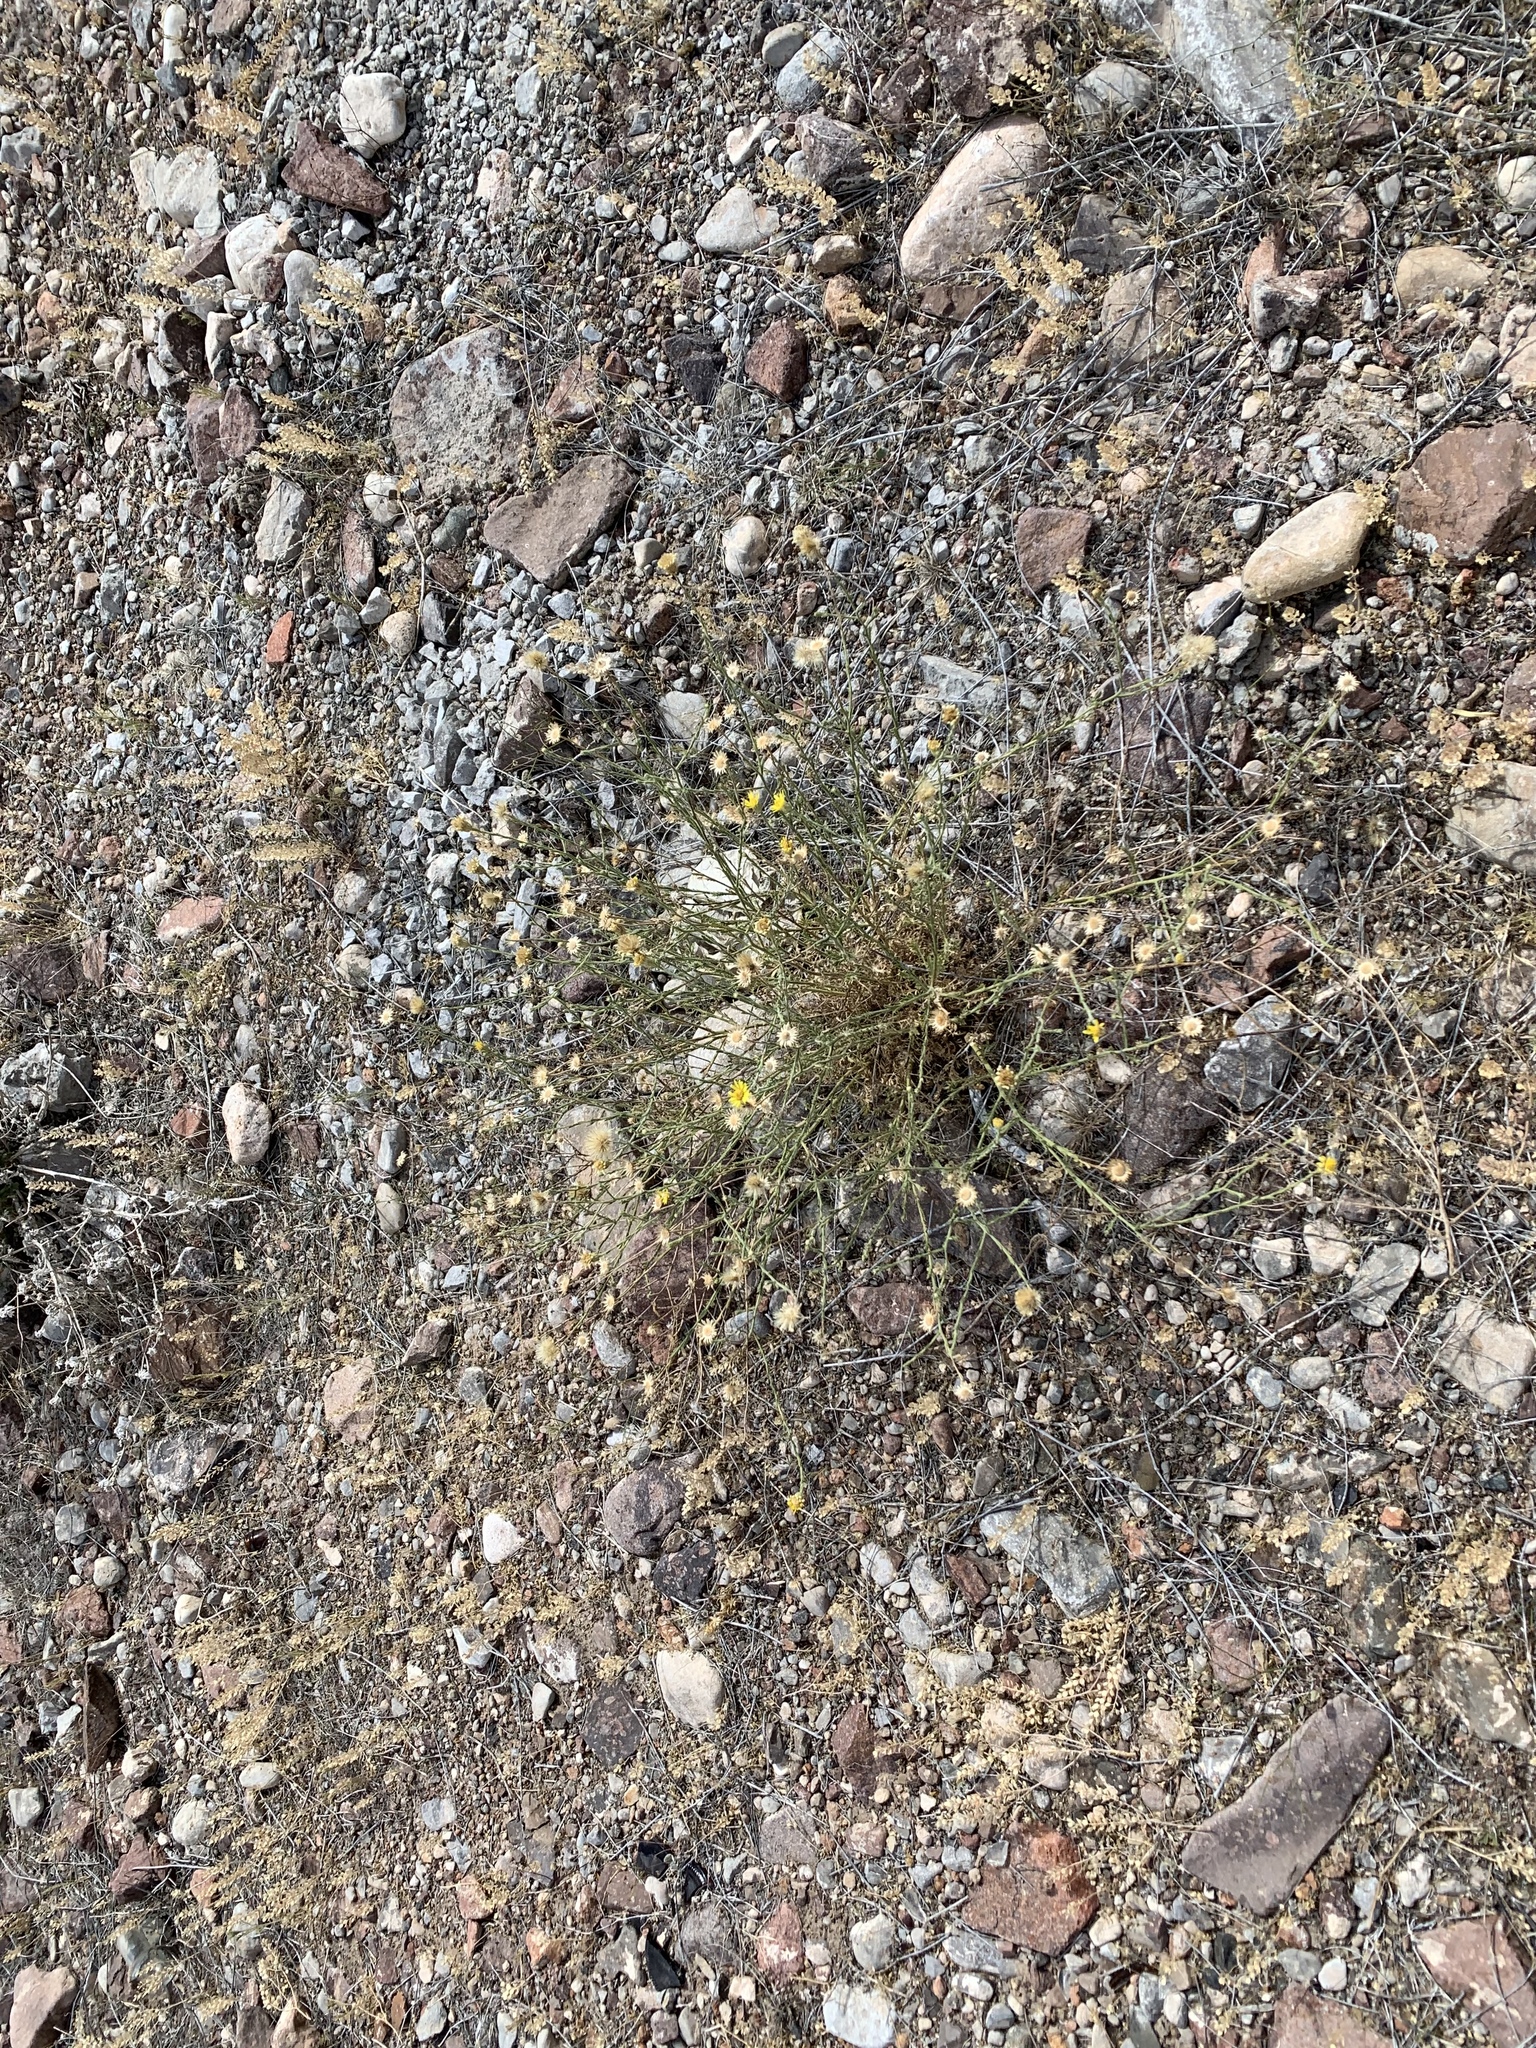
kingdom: Plantae
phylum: Tracheophyta
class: Magnoliopsida
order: Asterales
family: Asteraceae
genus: Xanthisma
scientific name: Xanthisma spinulosum
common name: Spiny goldenweed
